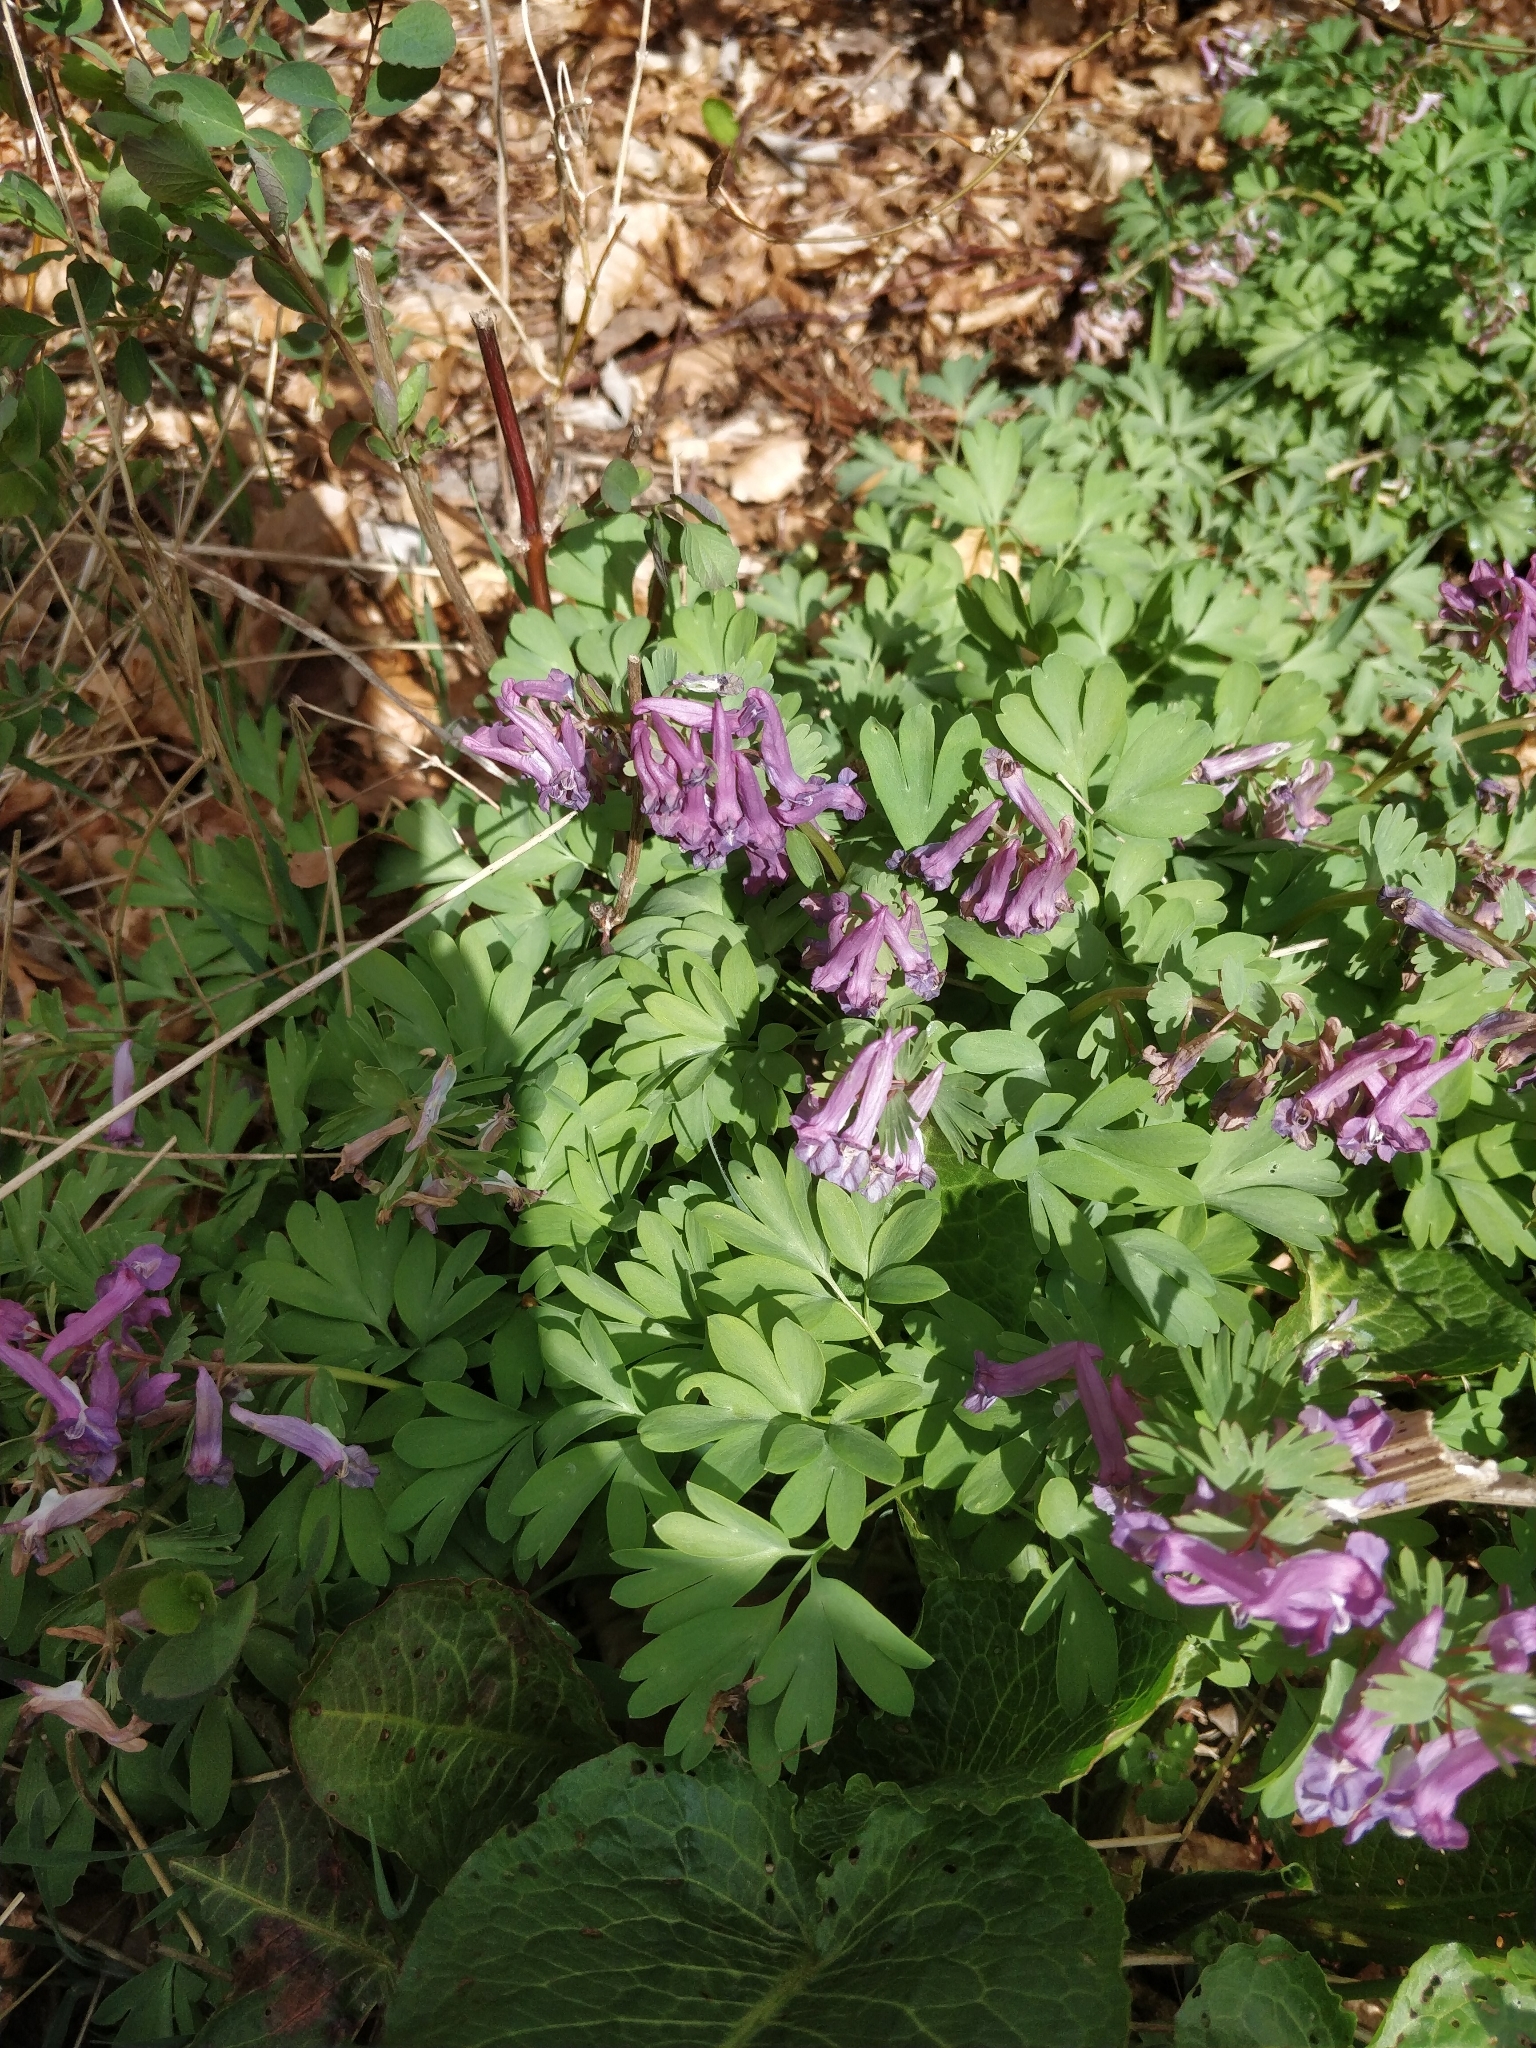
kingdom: Plantae
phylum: Tracheophyta
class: Magnoliopsida
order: Ranunculales
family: Papaveraceae
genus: Corydalis
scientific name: Corydalis solida
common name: Bird-in-a-bush
